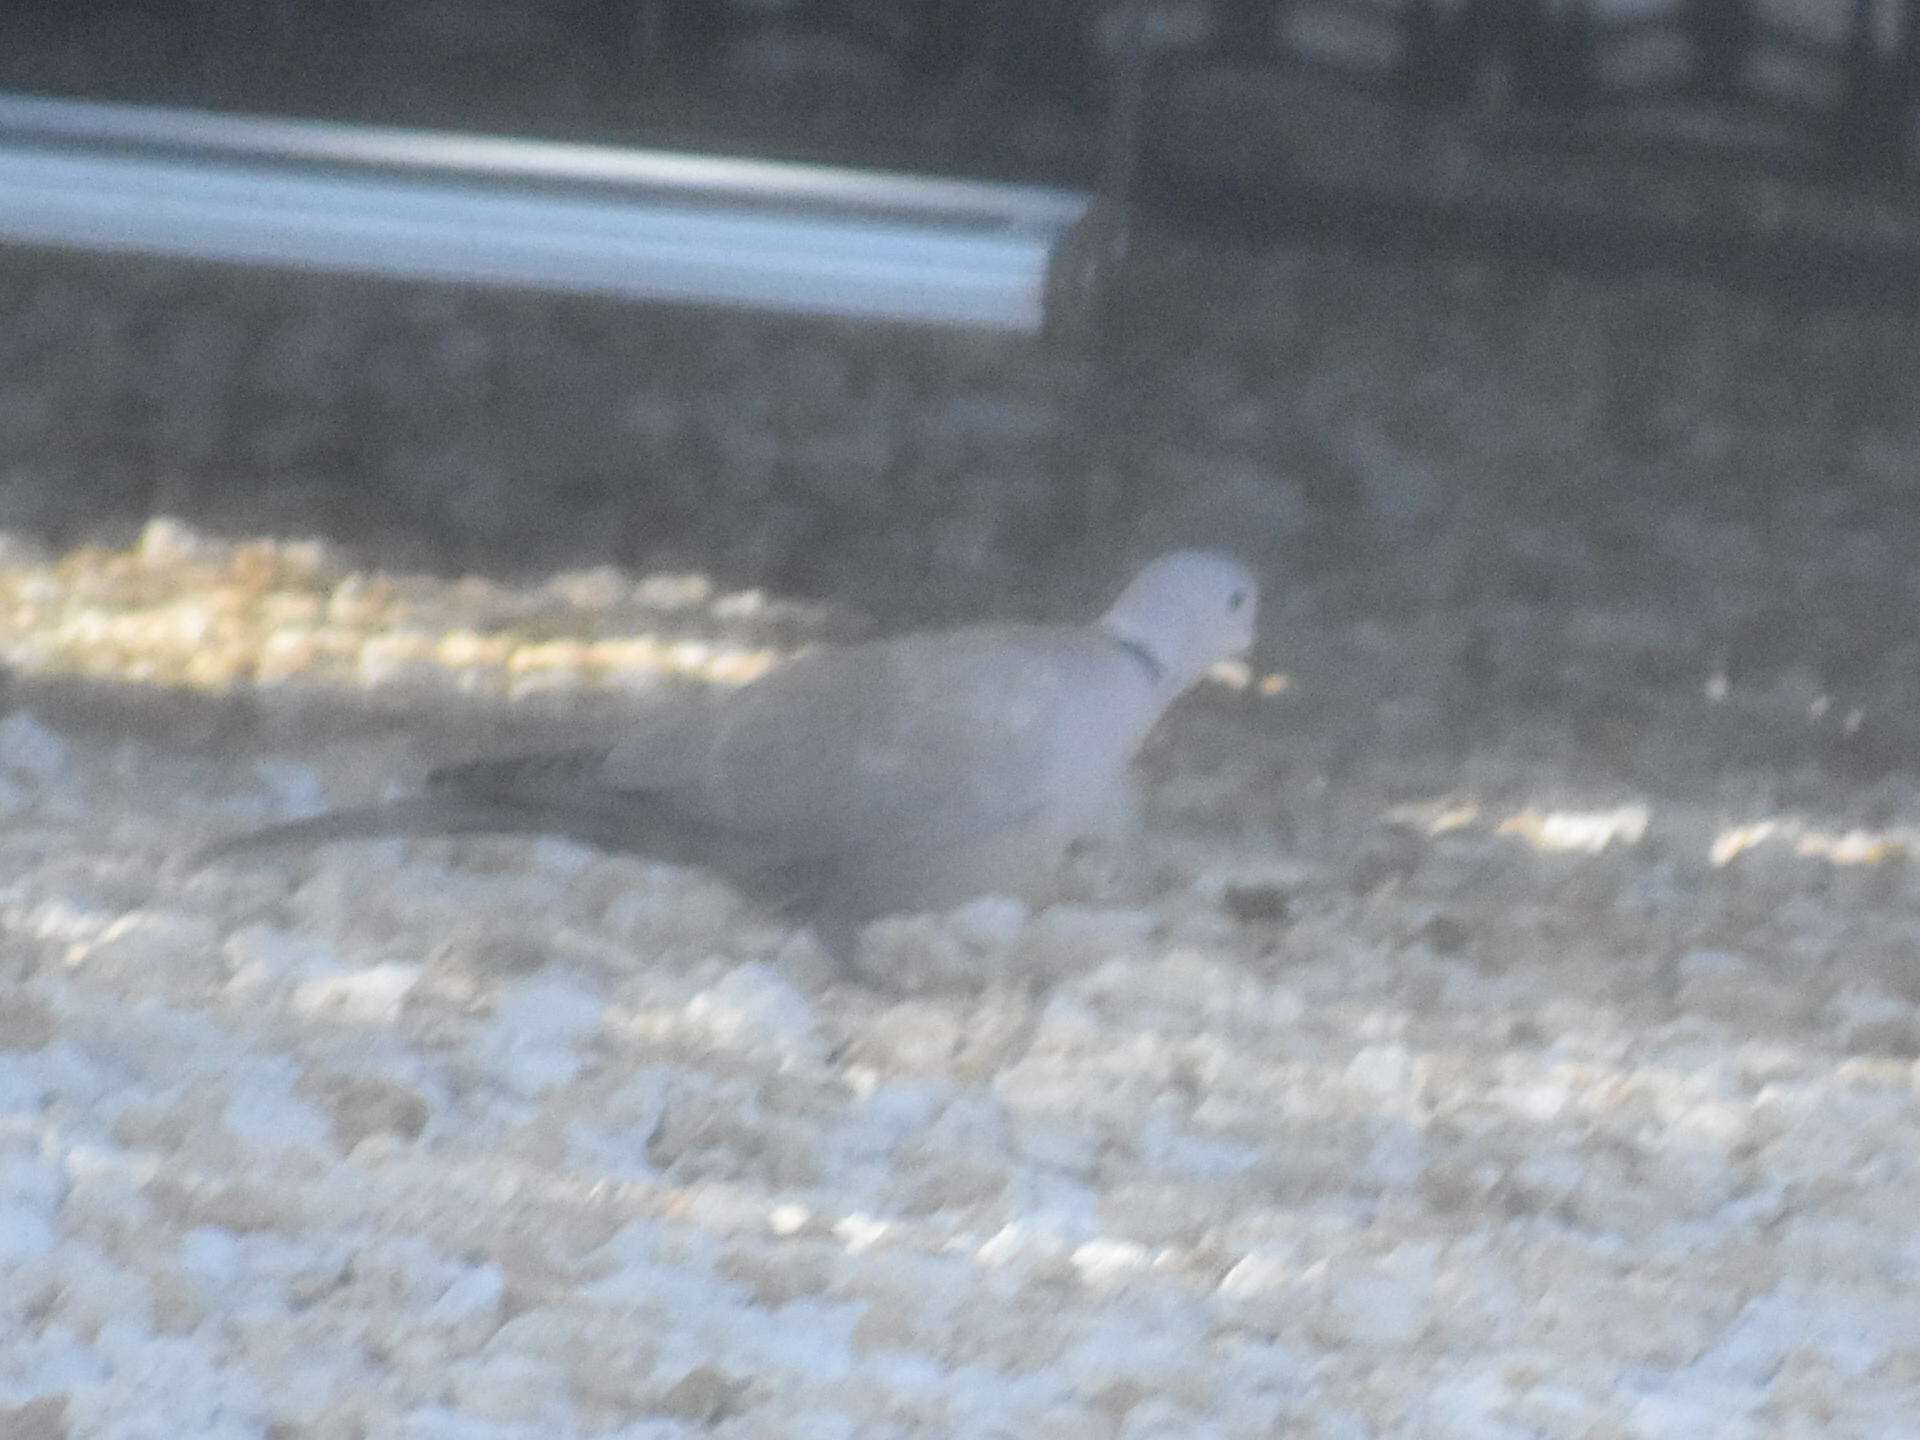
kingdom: Animalia
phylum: Chordata
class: Aves
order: Columbiformes
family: Columbidae
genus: Streptopelia
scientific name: Streptopelia decaocto
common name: Eurasian collared dove
